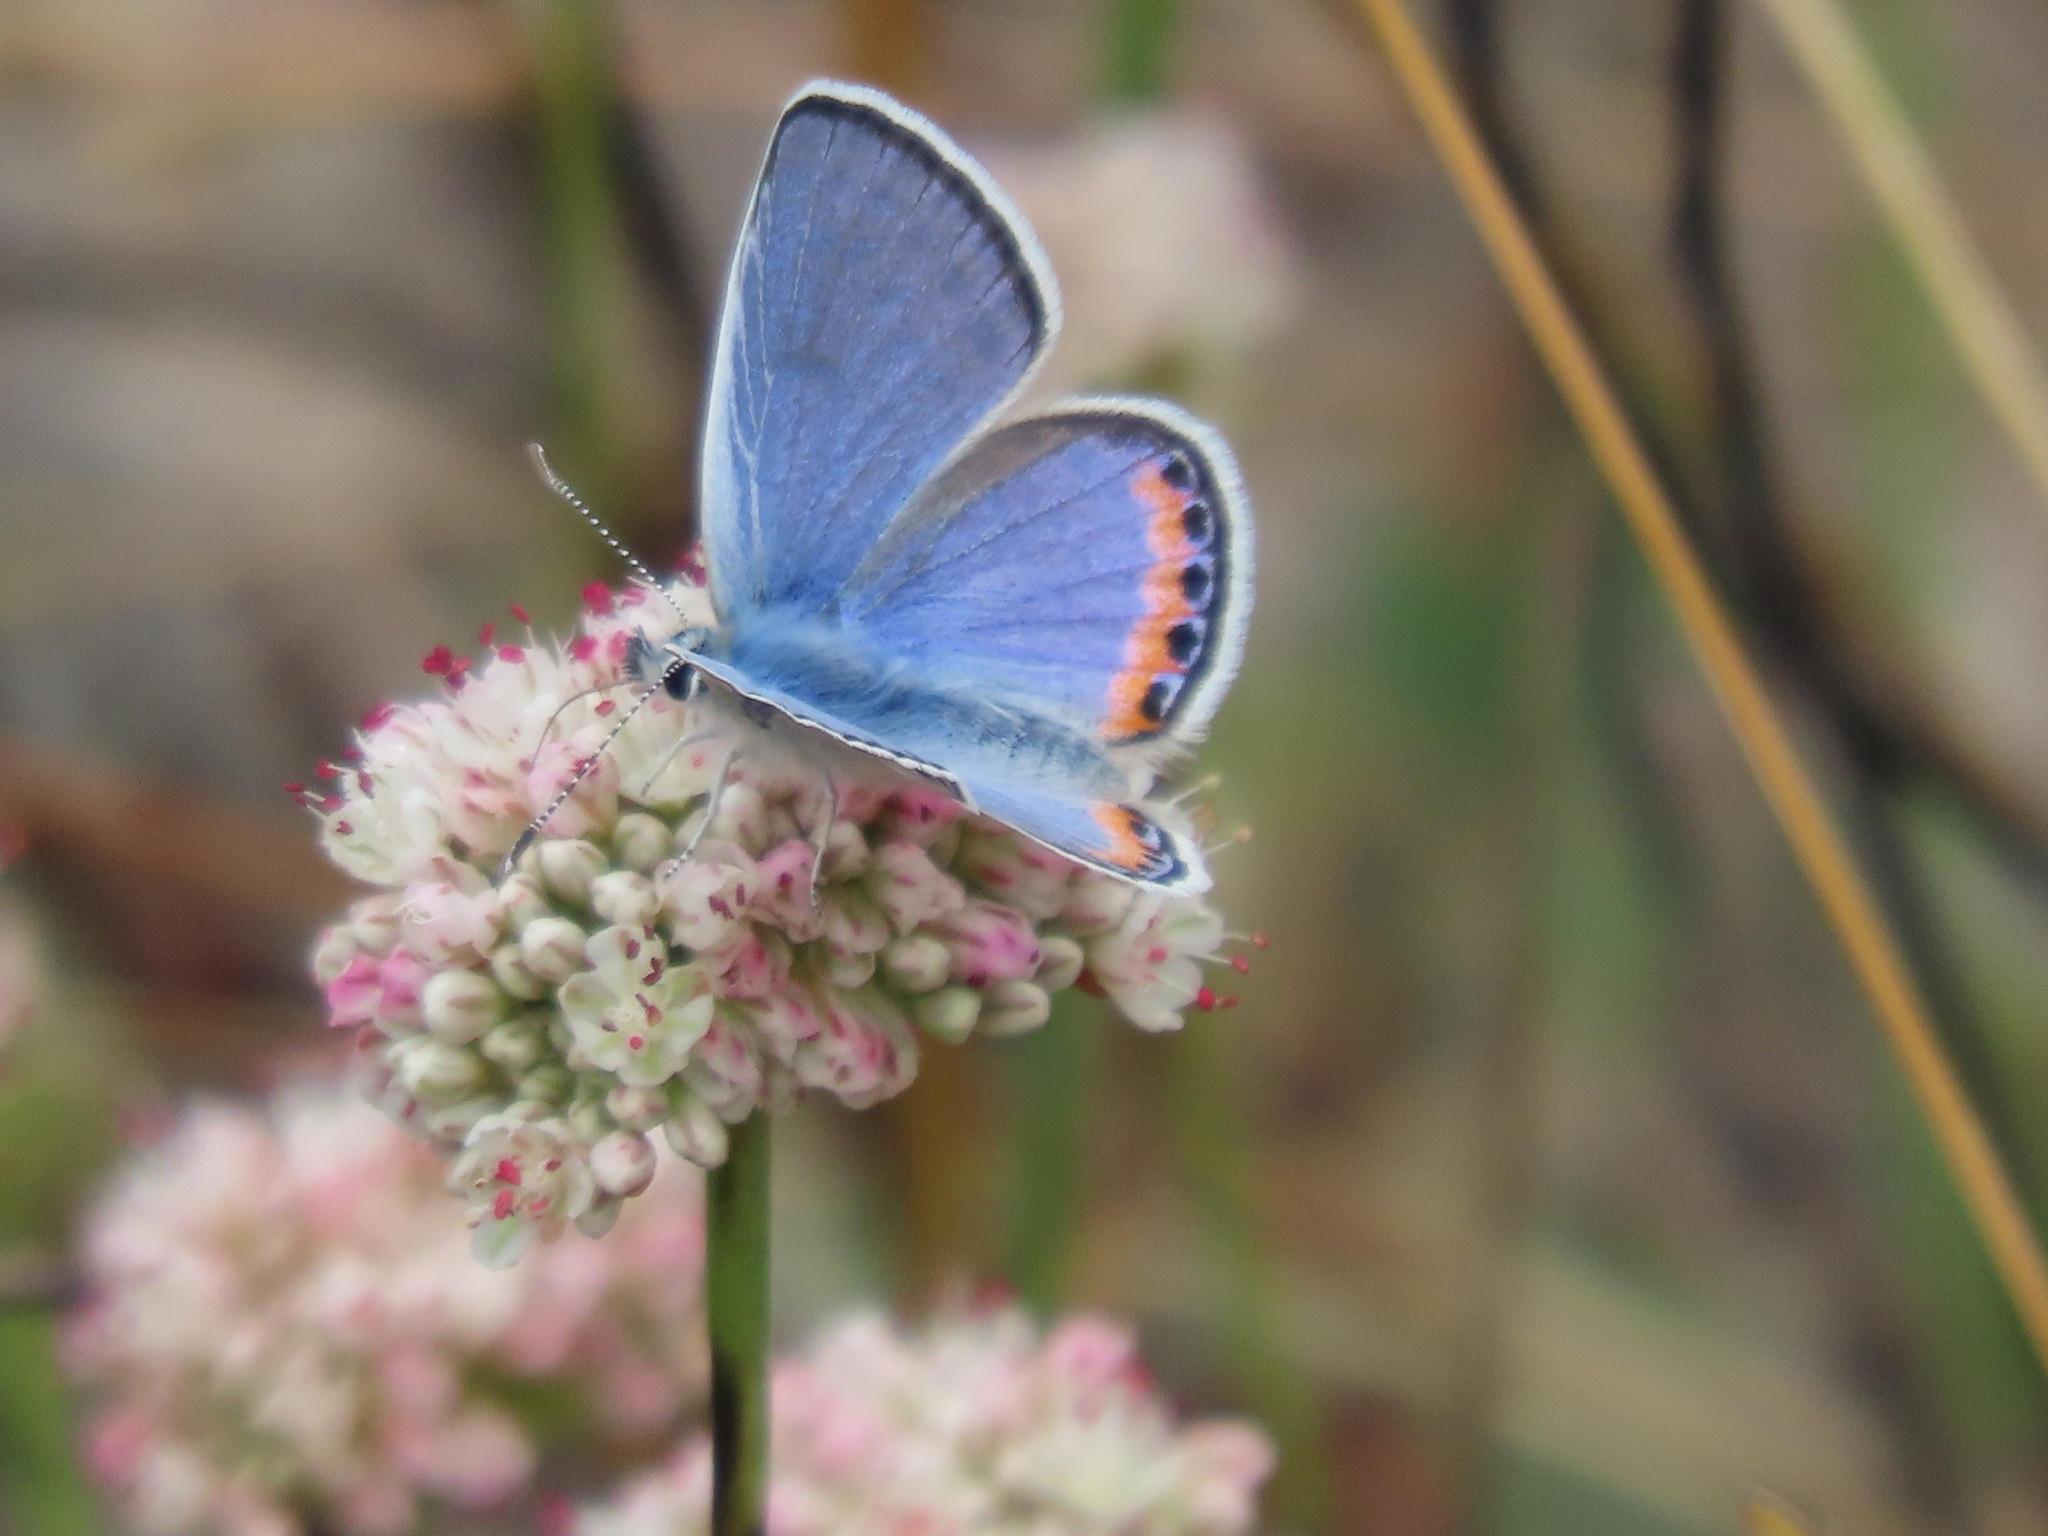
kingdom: Animalia
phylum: Arthropoda
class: Insecta
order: Lepidoptera
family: Lycaenidae
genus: Icaricia
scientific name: Icaricia acmon
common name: Acmon blue
